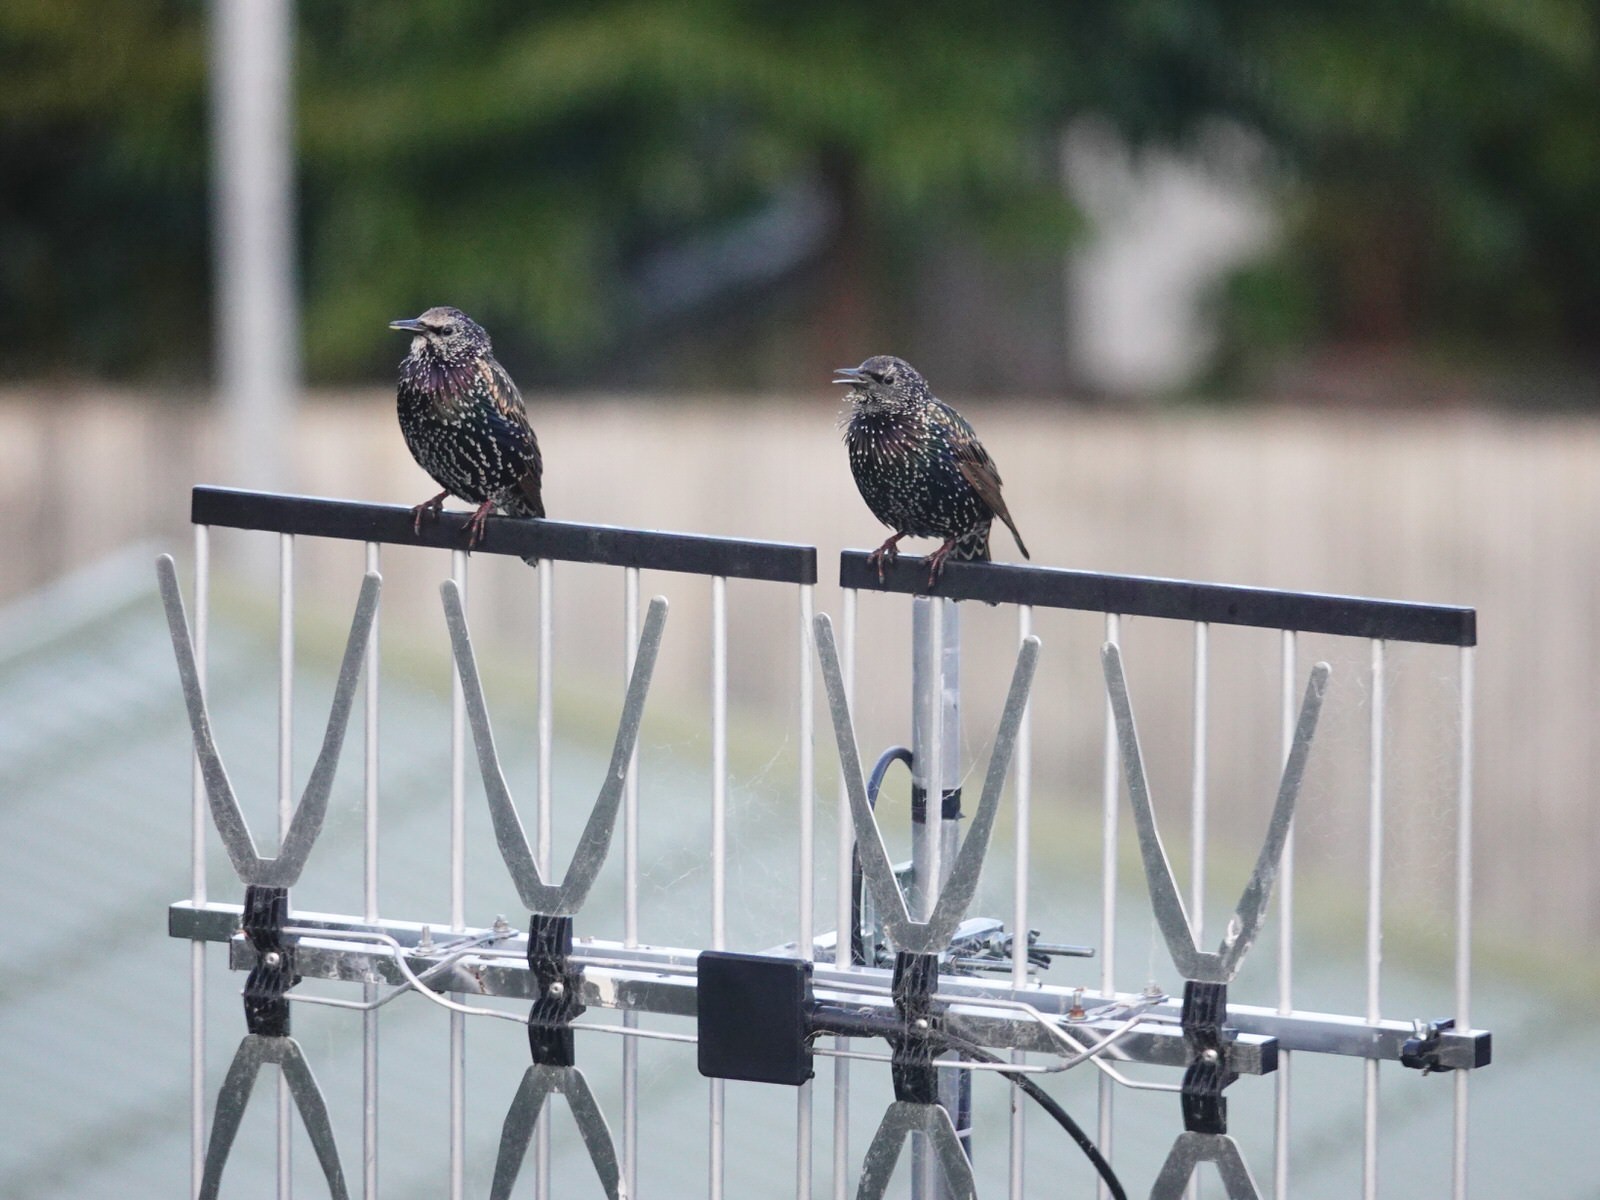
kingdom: Animalia
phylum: Chordata
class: Aves
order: Passeriformes
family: Sturnidae
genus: Sturnus
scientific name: Sturnus vulgaris
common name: Common starling
